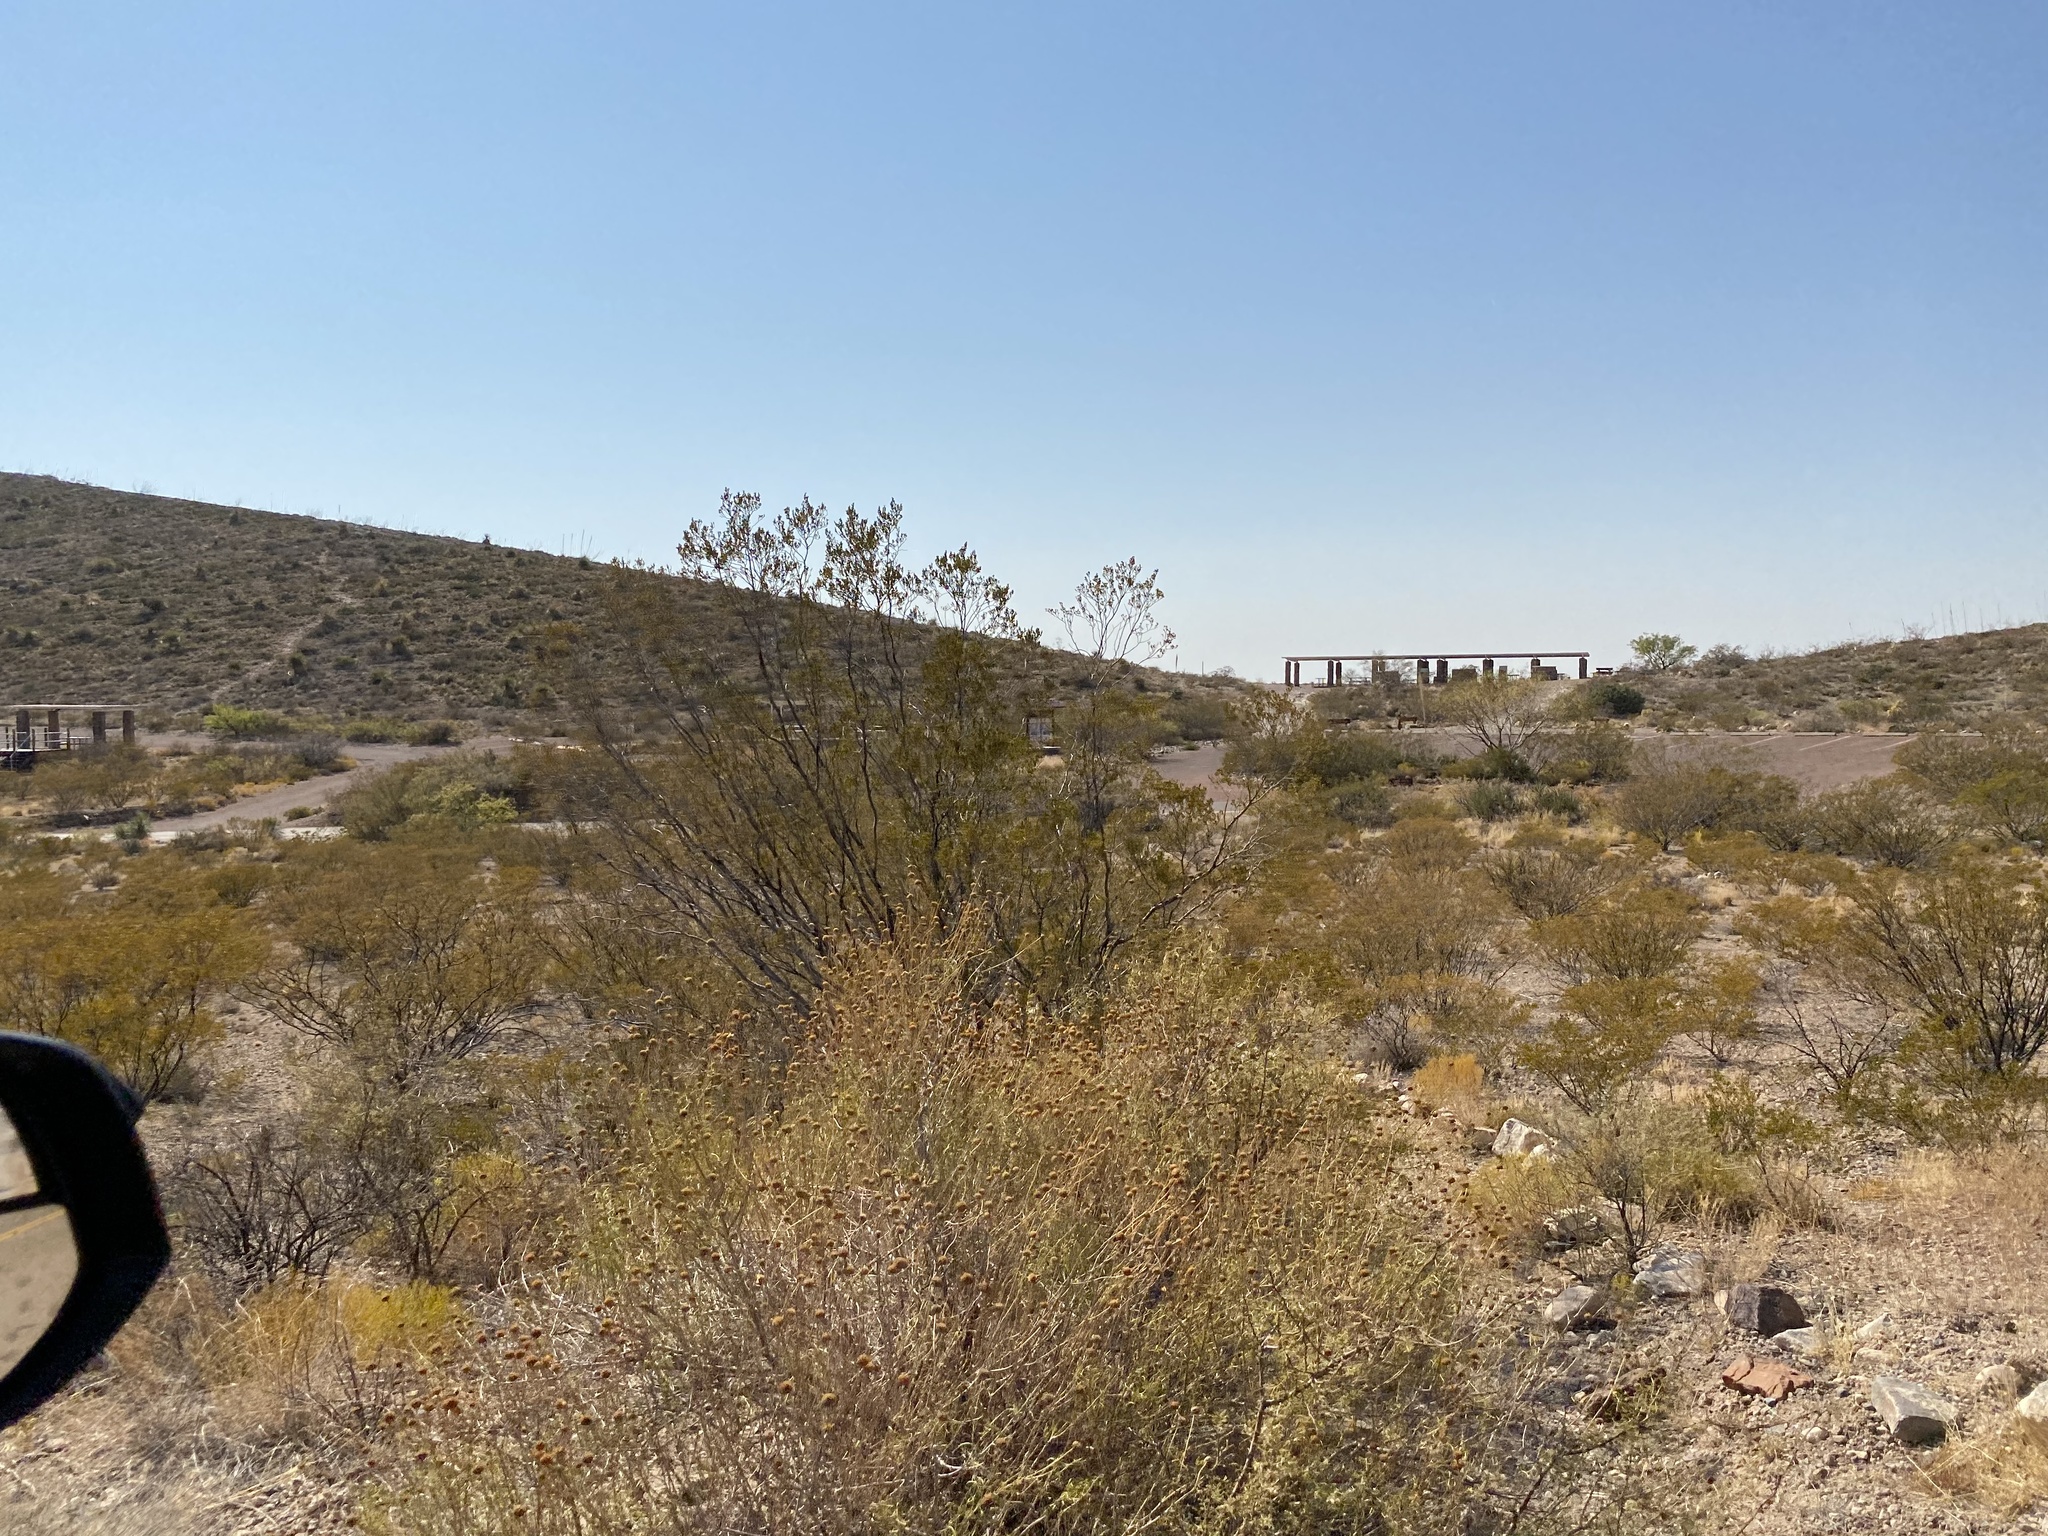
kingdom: Plantae
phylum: Tracheophyta
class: Magnoliopsida
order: Zygophyllales
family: Zygophyllaceae
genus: Larrea
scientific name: Larrea tridentata
